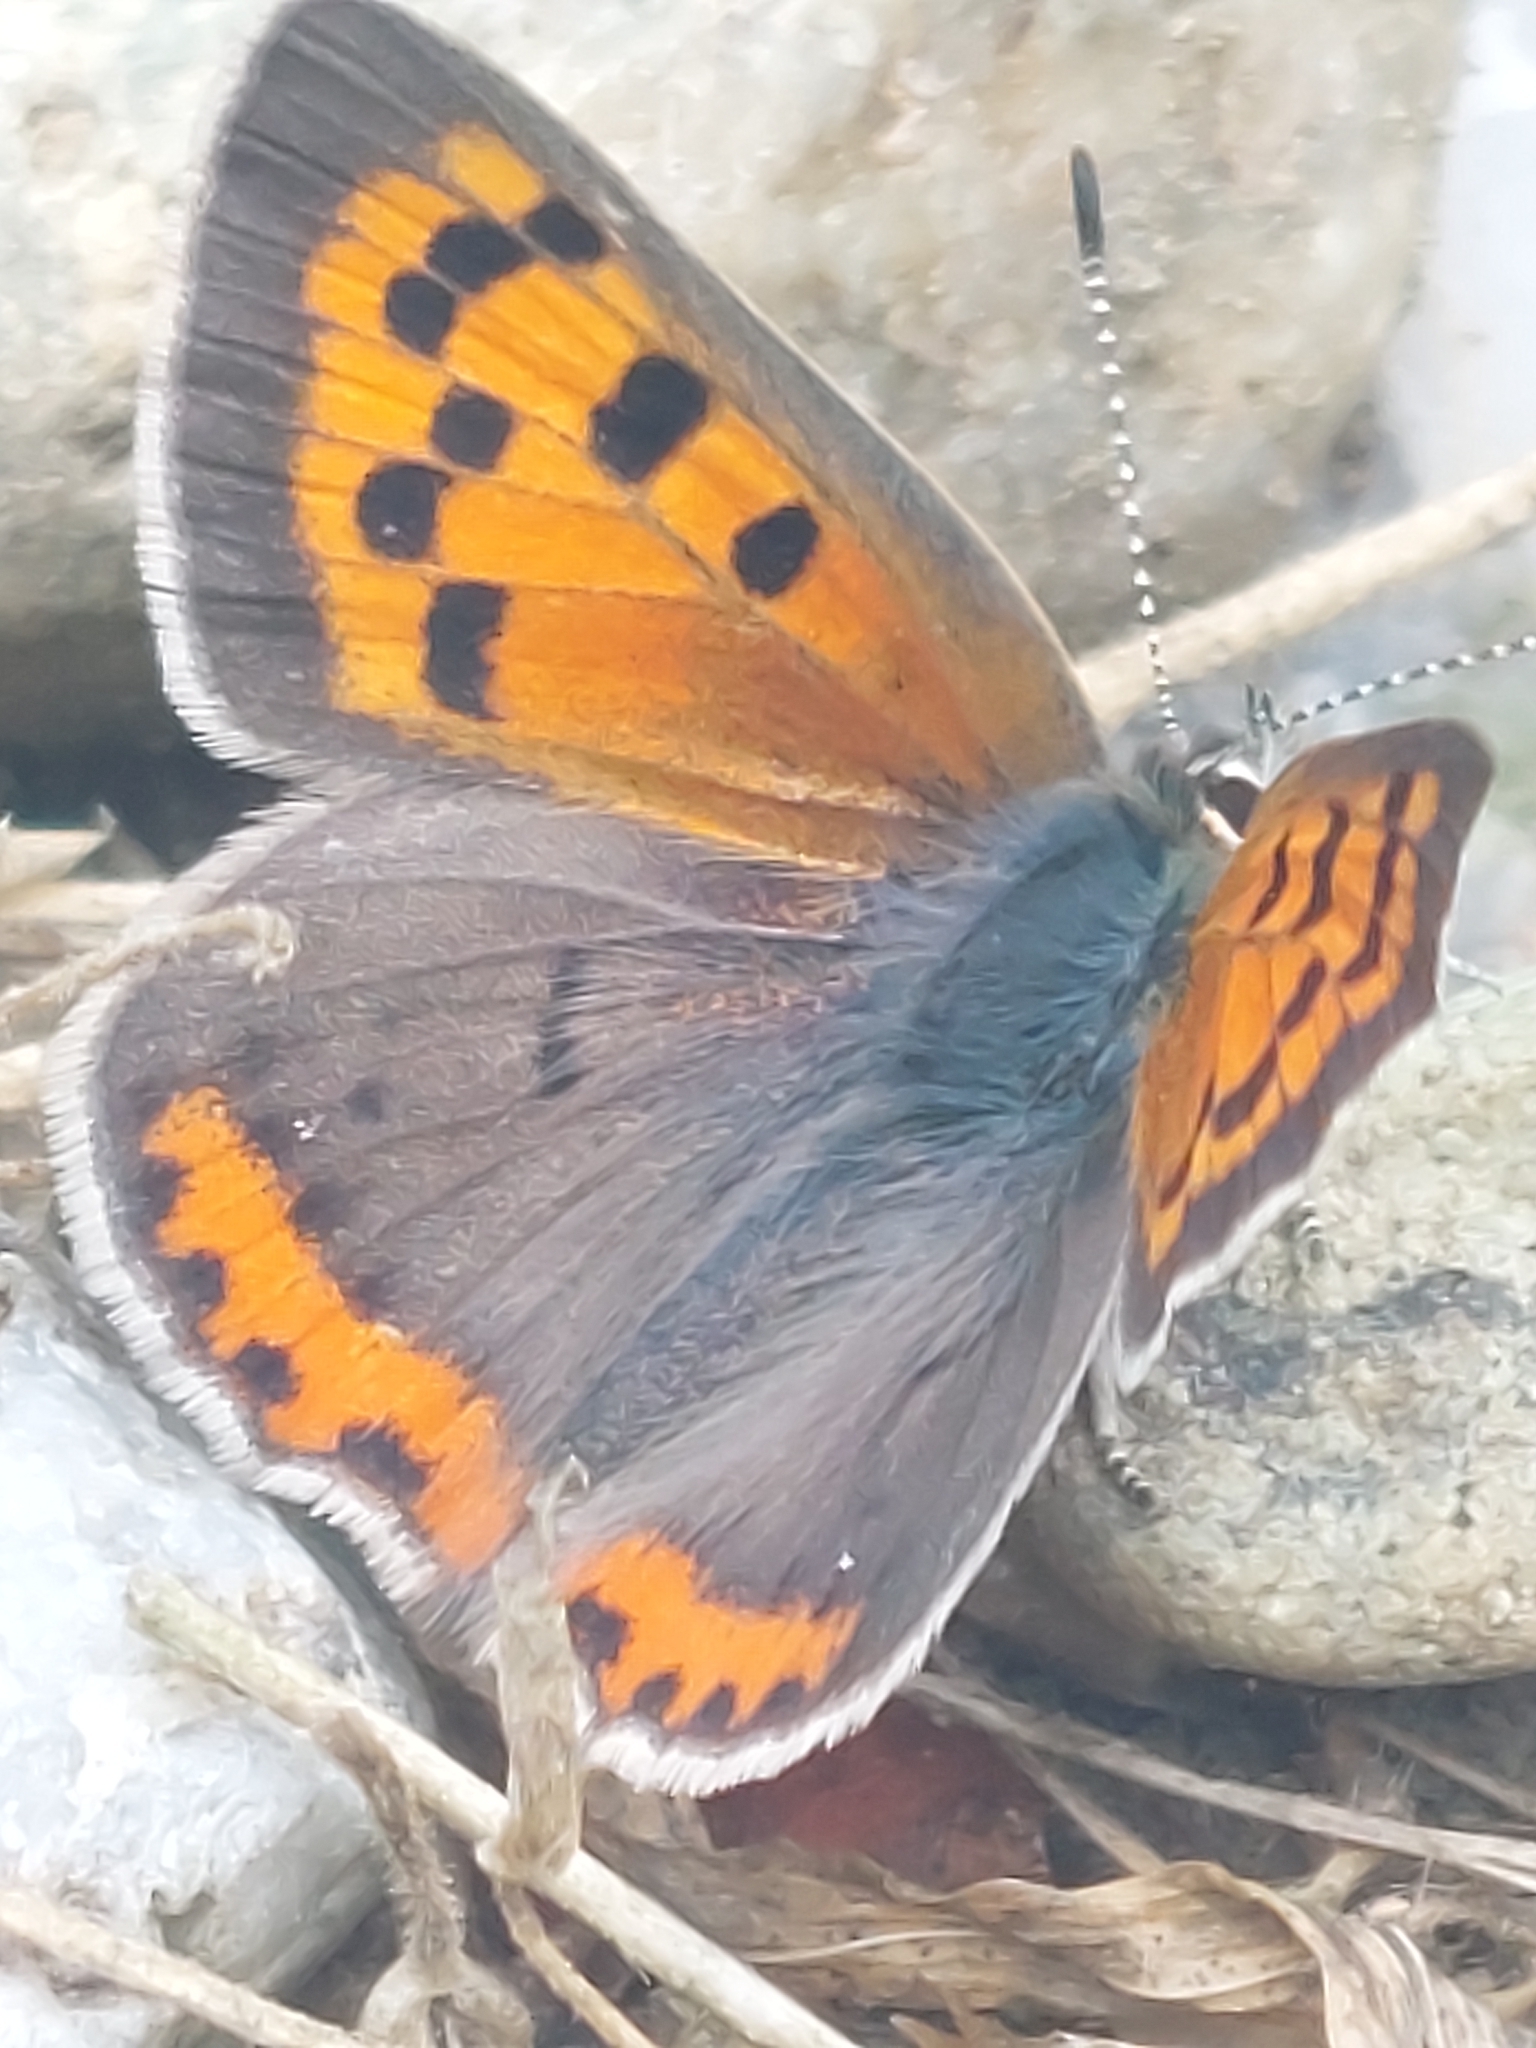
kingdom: Animalia
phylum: Arthropoda
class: Insecta
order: Lepidoptera
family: Lycaenidae
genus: Lycaena
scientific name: Lycaena hypophlaeas
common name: American copper
